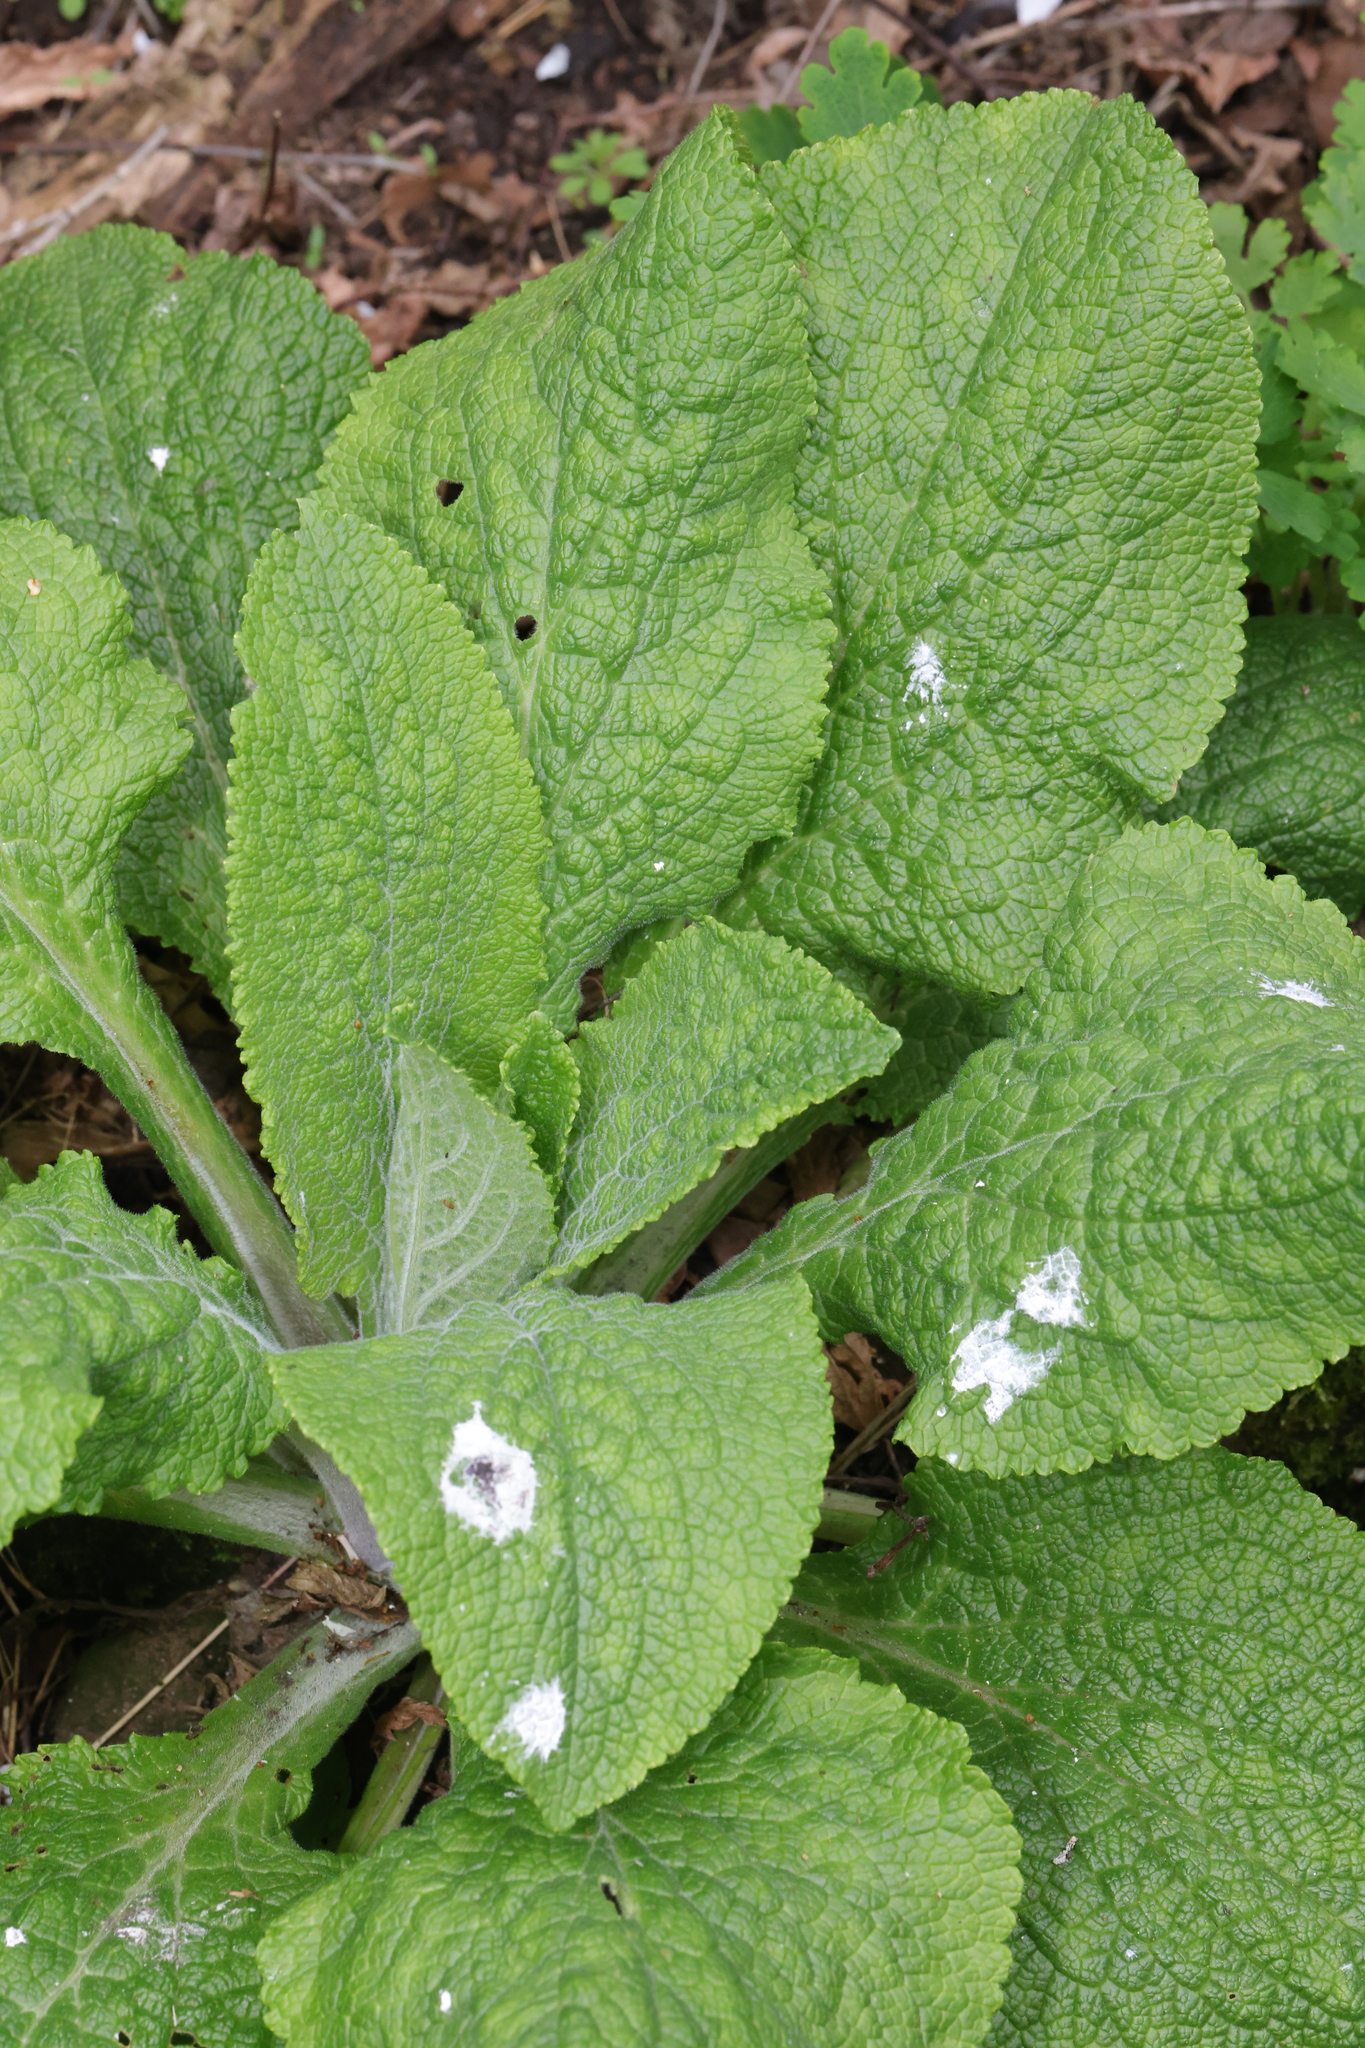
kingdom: Plantae
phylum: Tracheophyta
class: Magnoliopsida
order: Lamiales
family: Plantaginaceae
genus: Digitalis
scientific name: Digitalis purpurea
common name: Foxglove
